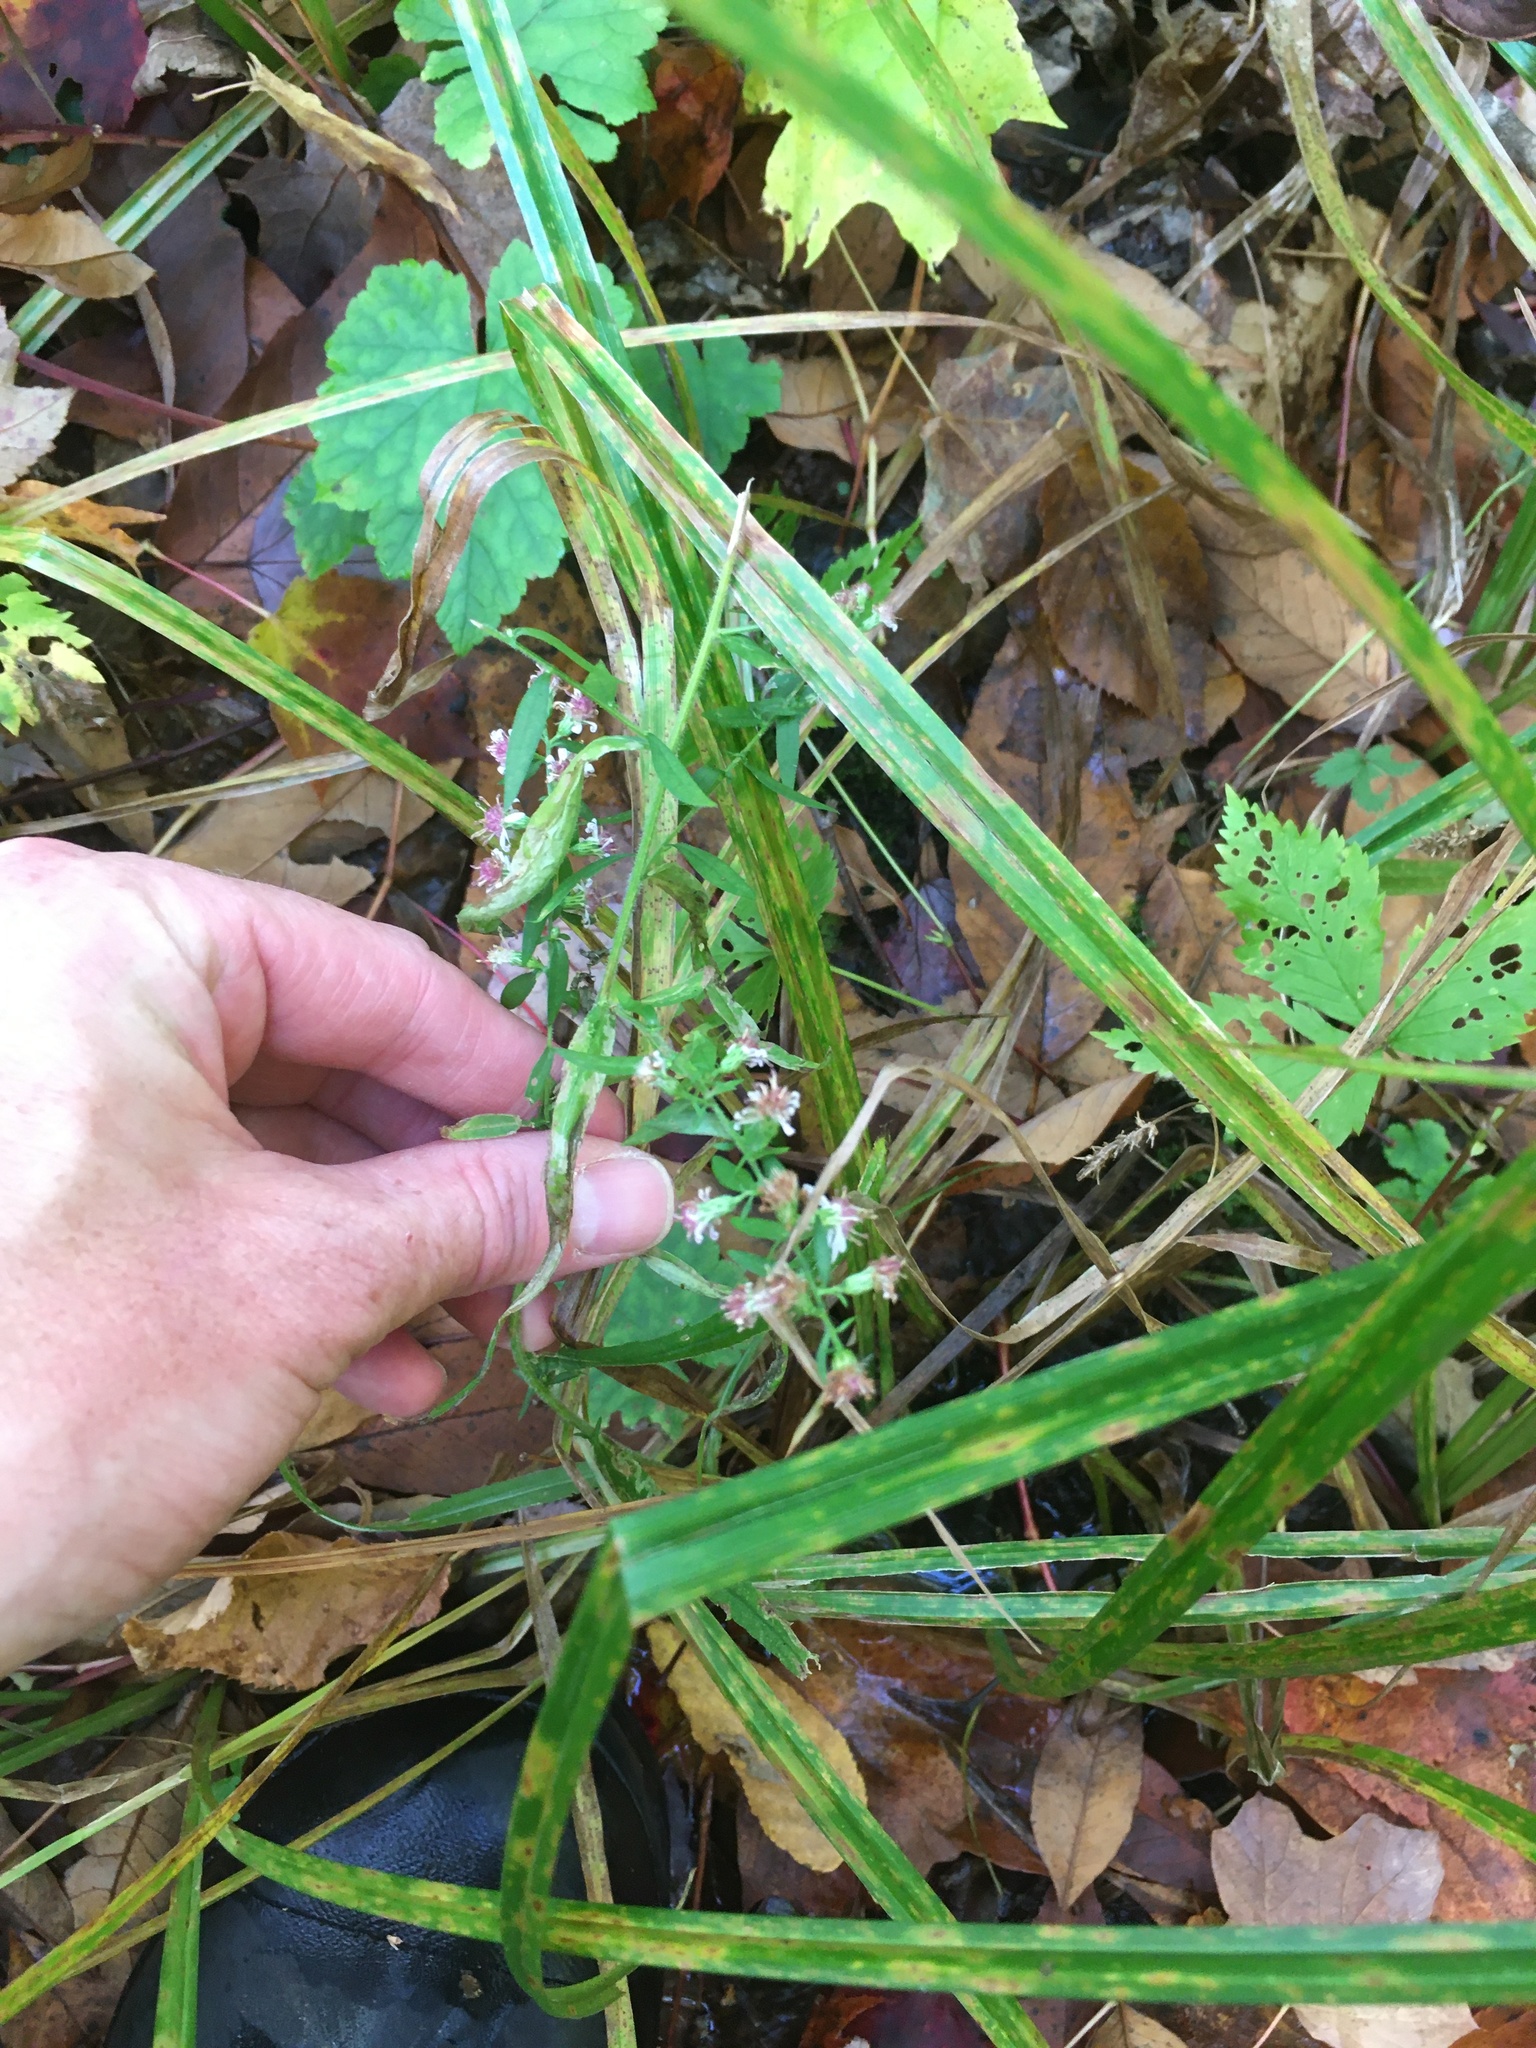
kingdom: Plantae
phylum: Tracheophyta
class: Magnoliopsida
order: Asterales
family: Asteraceae
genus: Symphyotrichum
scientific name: Symphyotrichum lateriflorum
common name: Calico aster
